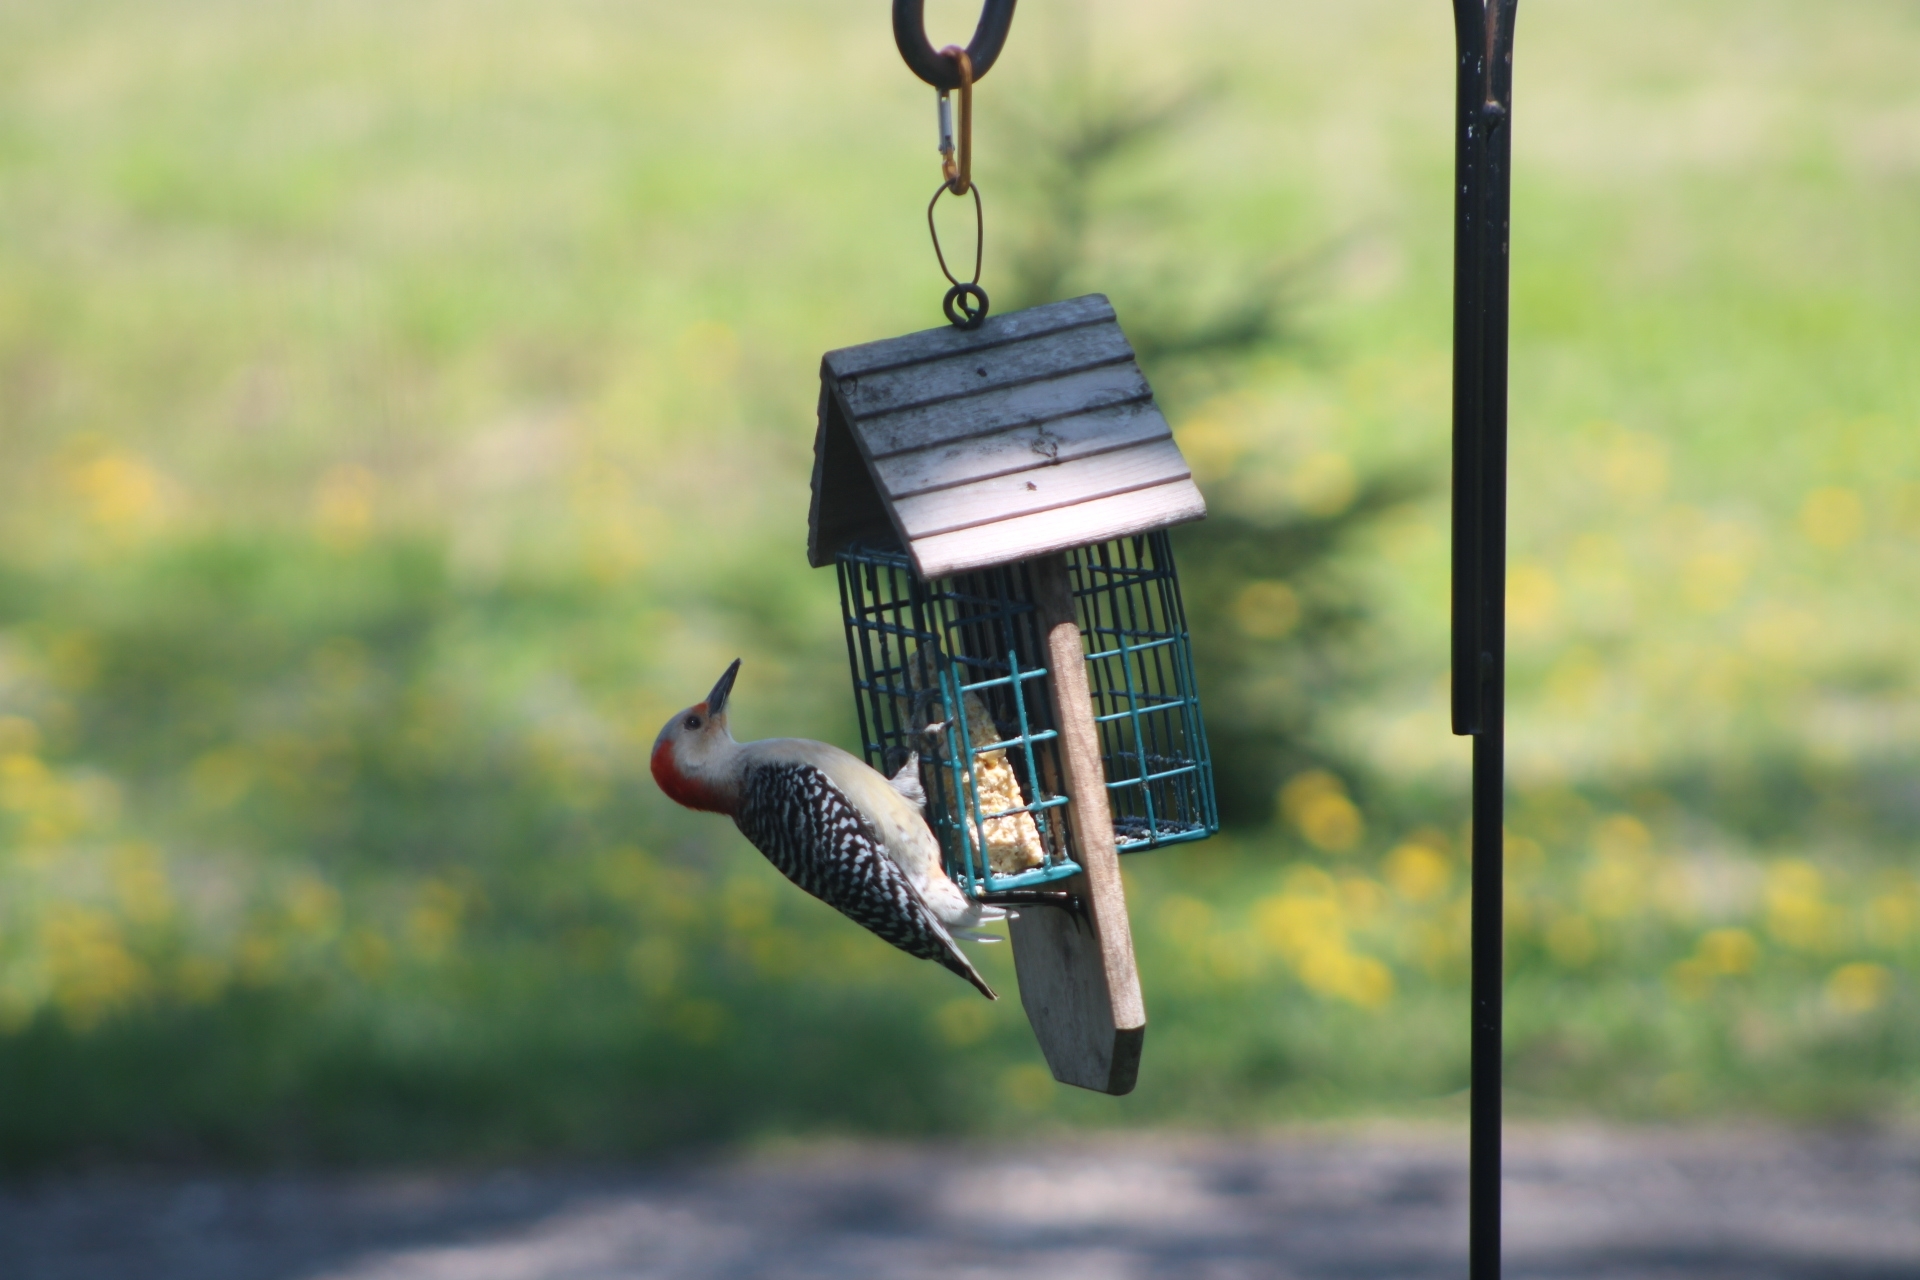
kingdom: Animalia
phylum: Chordata
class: Aves
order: Piciformes
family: Picidae
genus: Melanerpes
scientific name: Melanerpes carolinus
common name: Red-bellied woodpecker
